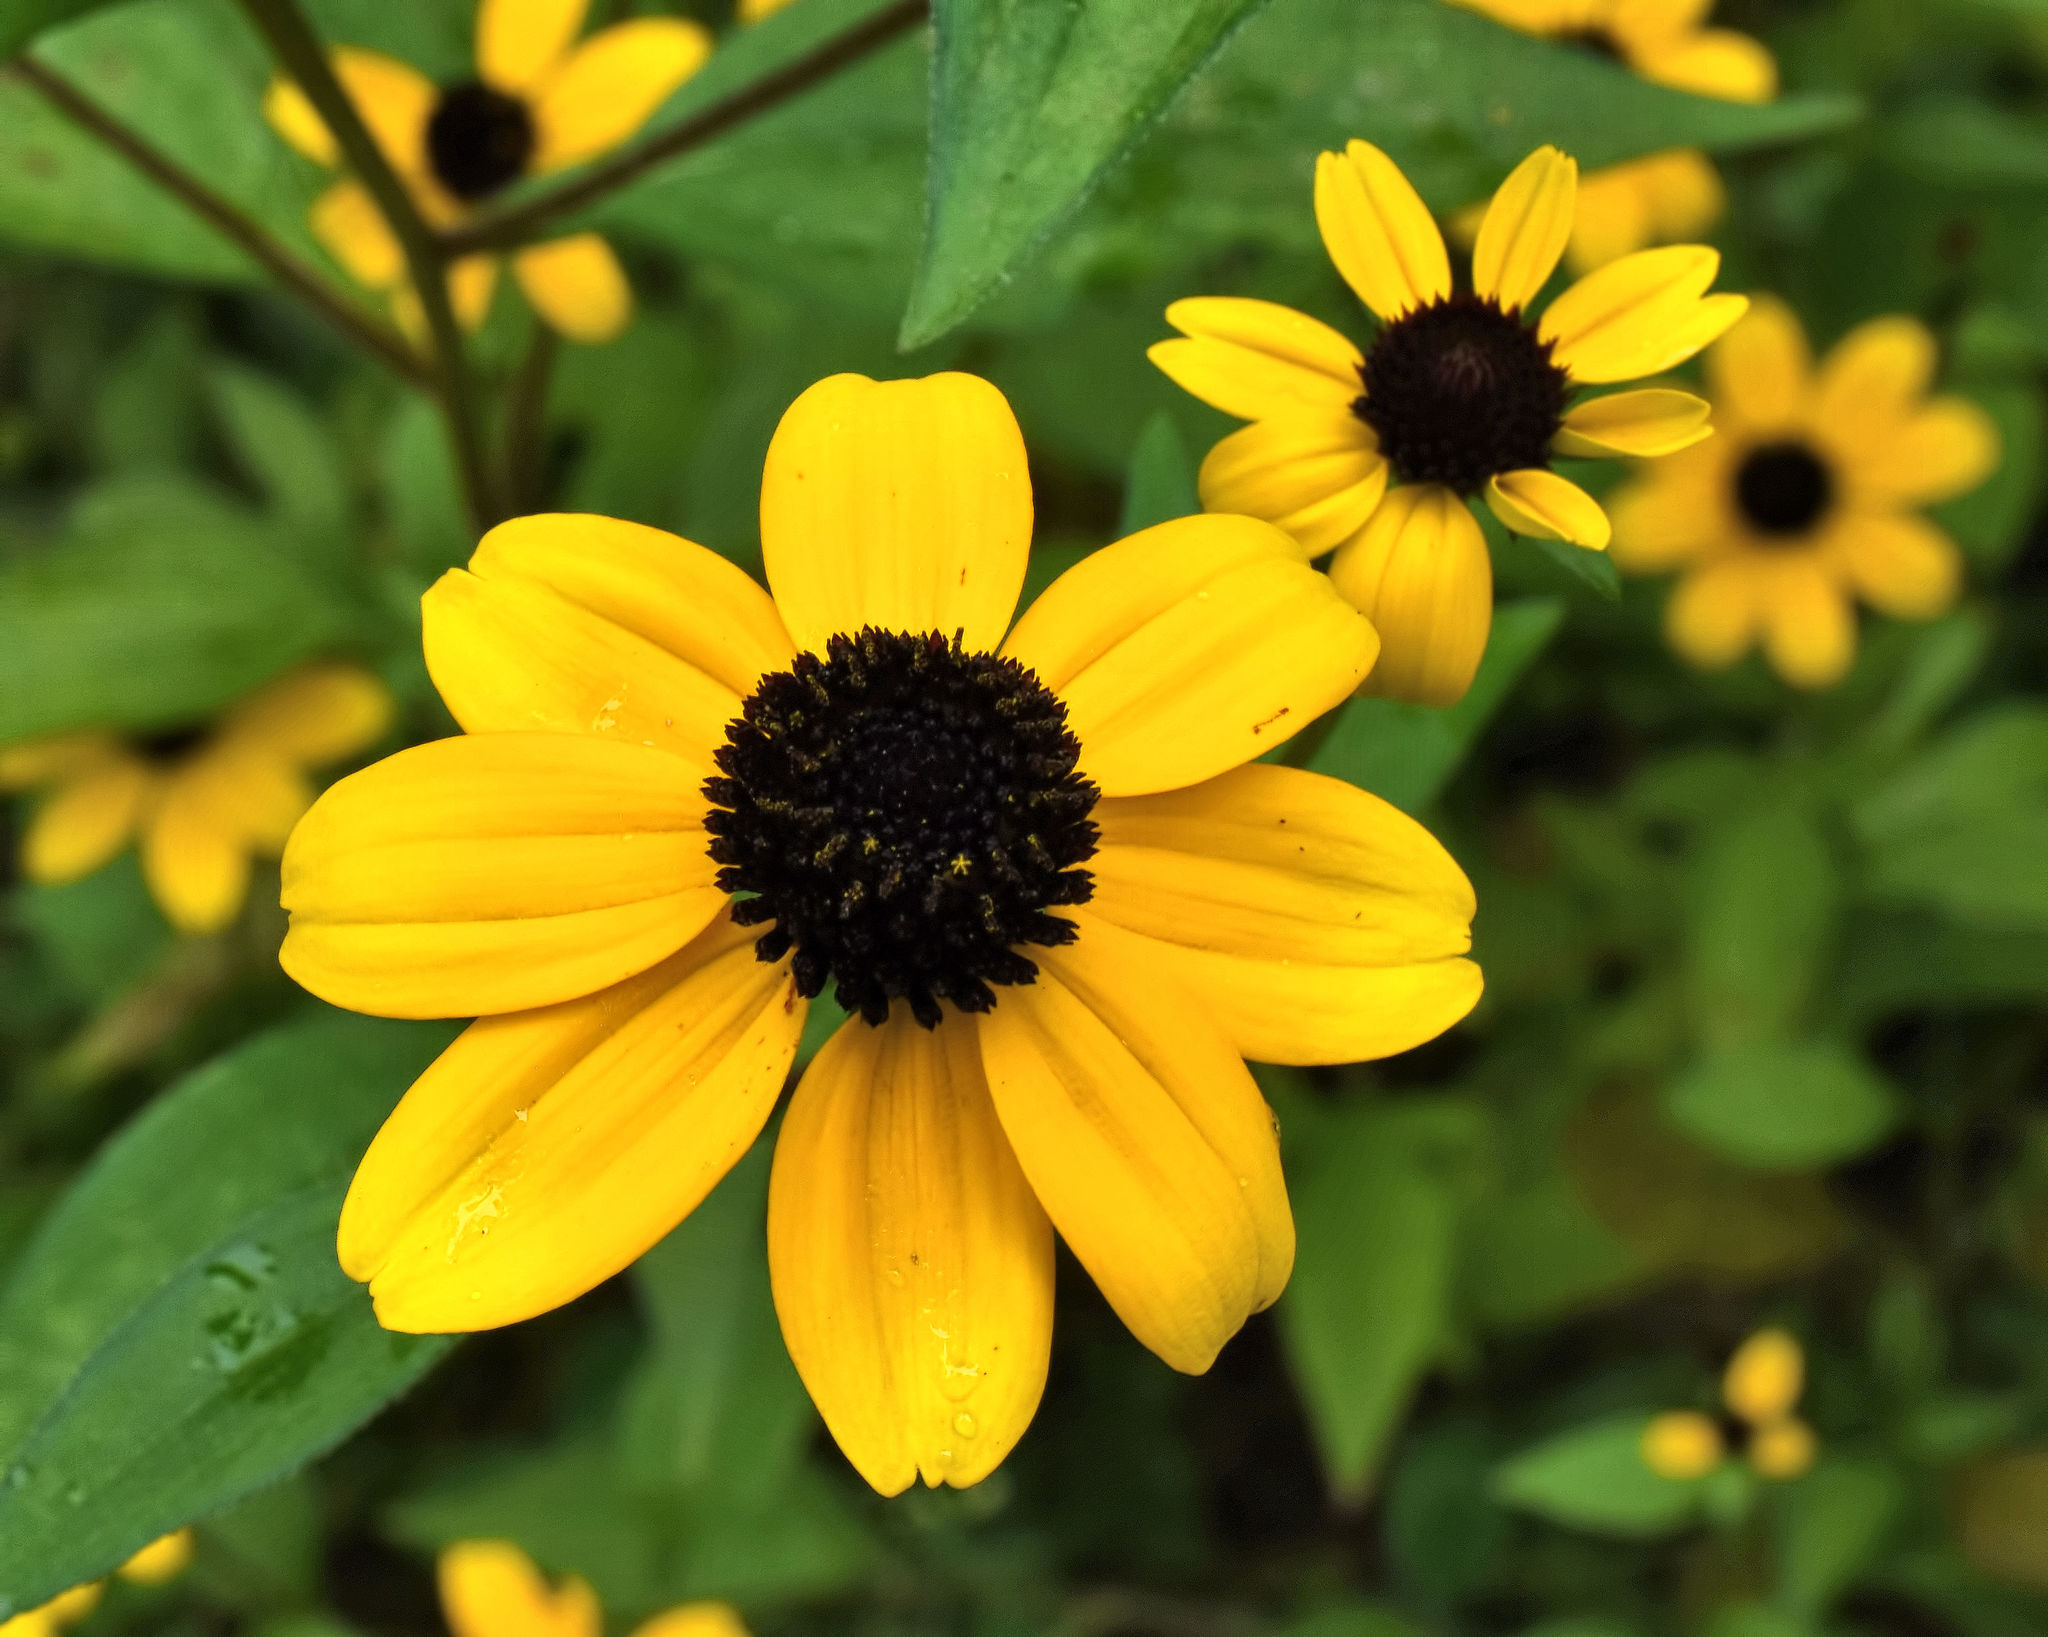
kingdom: Plantae
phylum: Tracheophyta
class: Magnoliopsida
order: Asterales
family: Asteraceae
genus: Rudbeckia
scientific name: Rudbeckia triloba
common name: Thin-leaved coneflower
